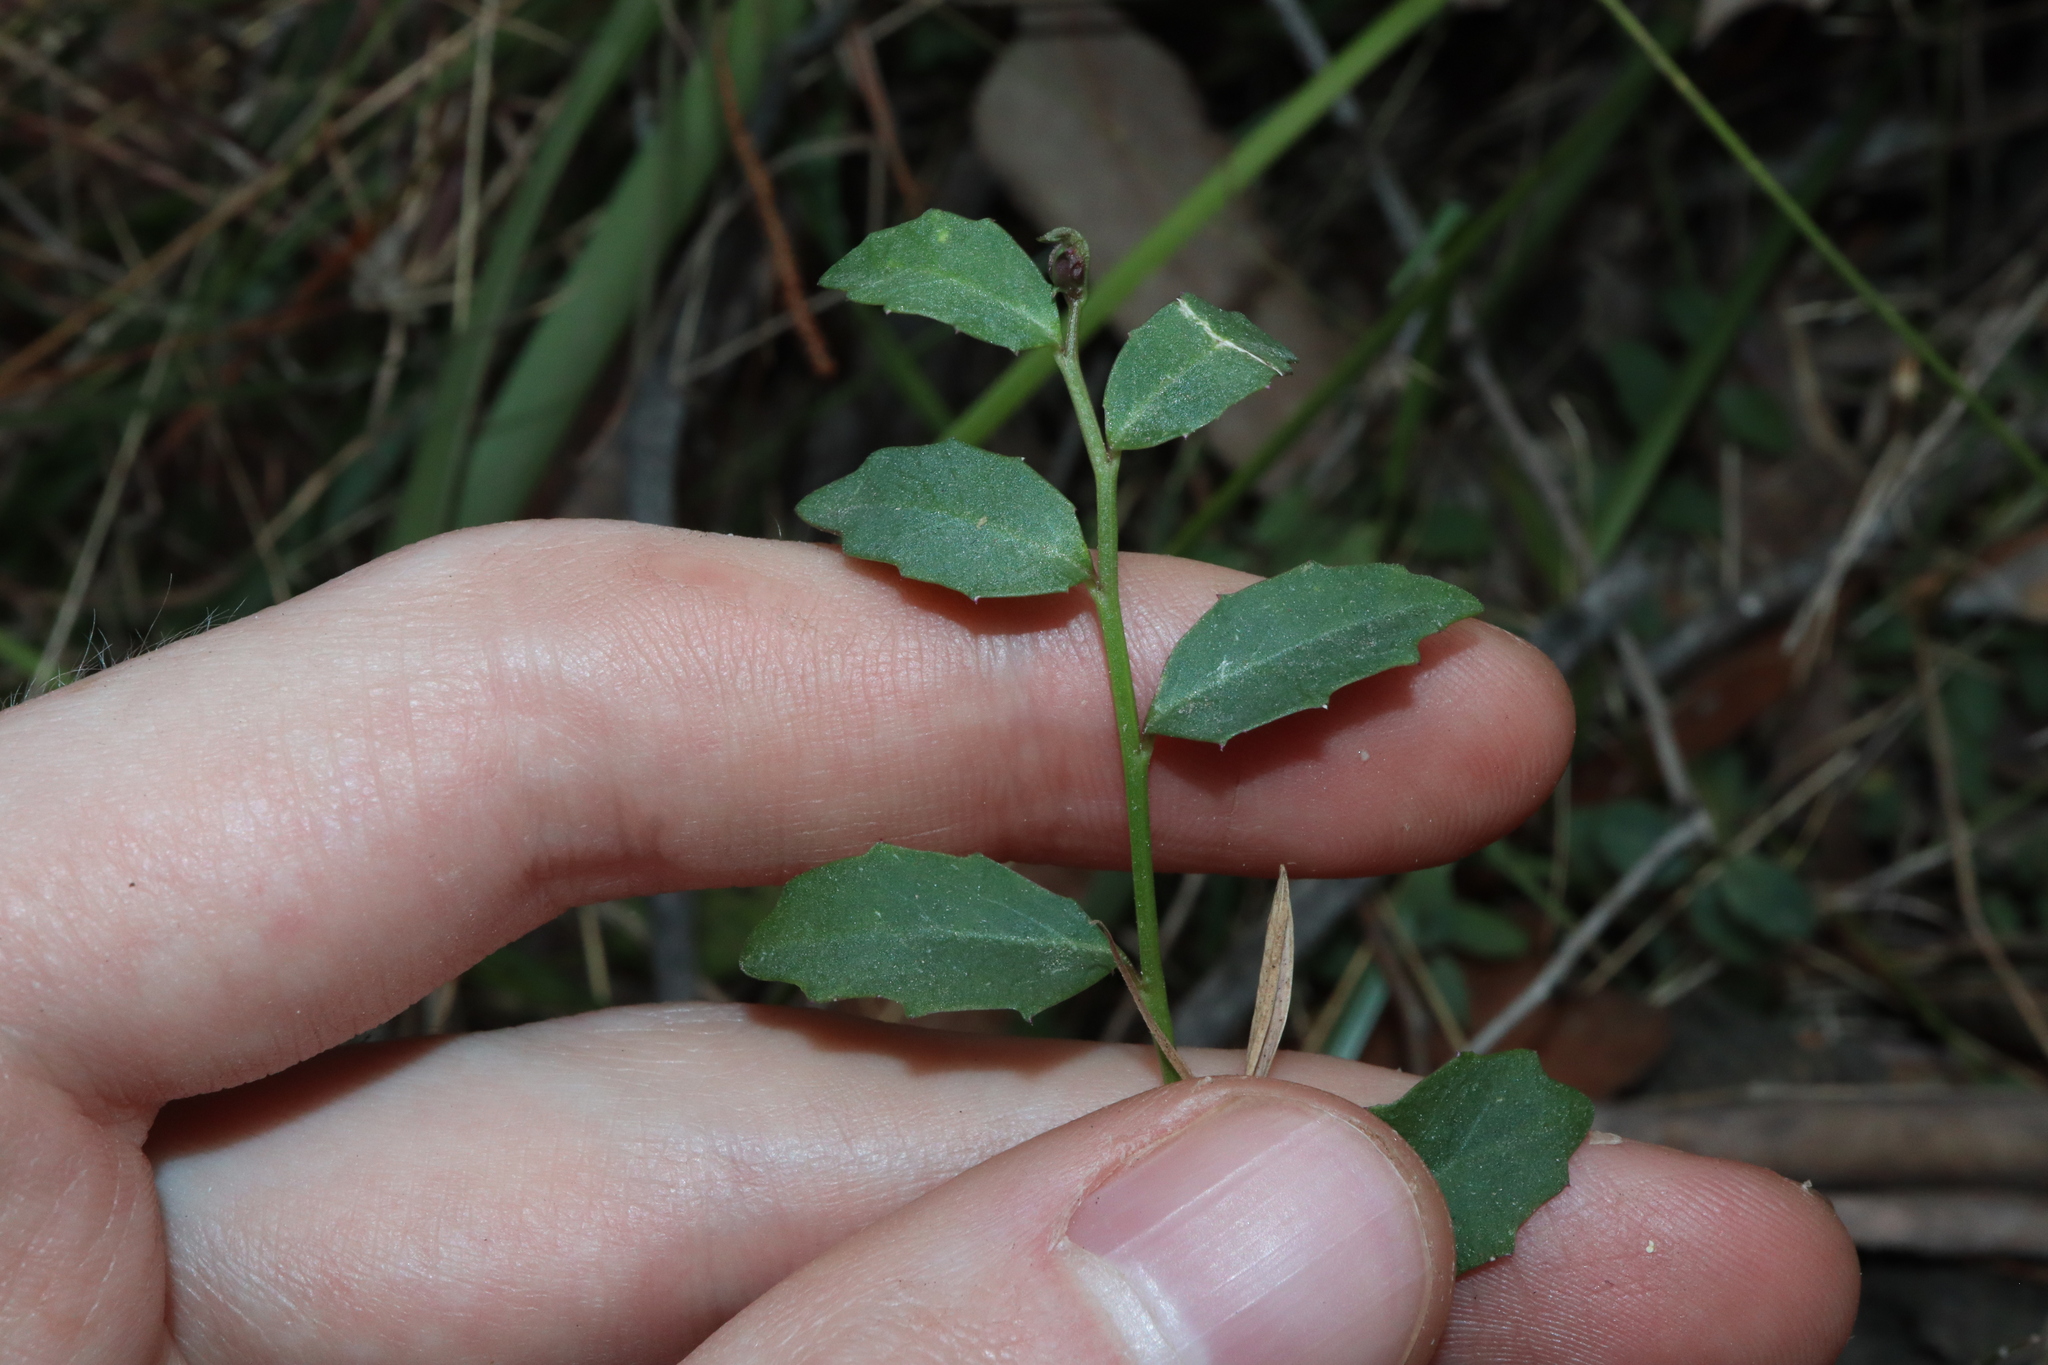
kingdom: Plantae
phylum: Tracheophyta
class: Magnoliopsida
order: Asterales
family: Campanulaceae
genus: Lobelia
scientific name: Lobelia purpurascens
